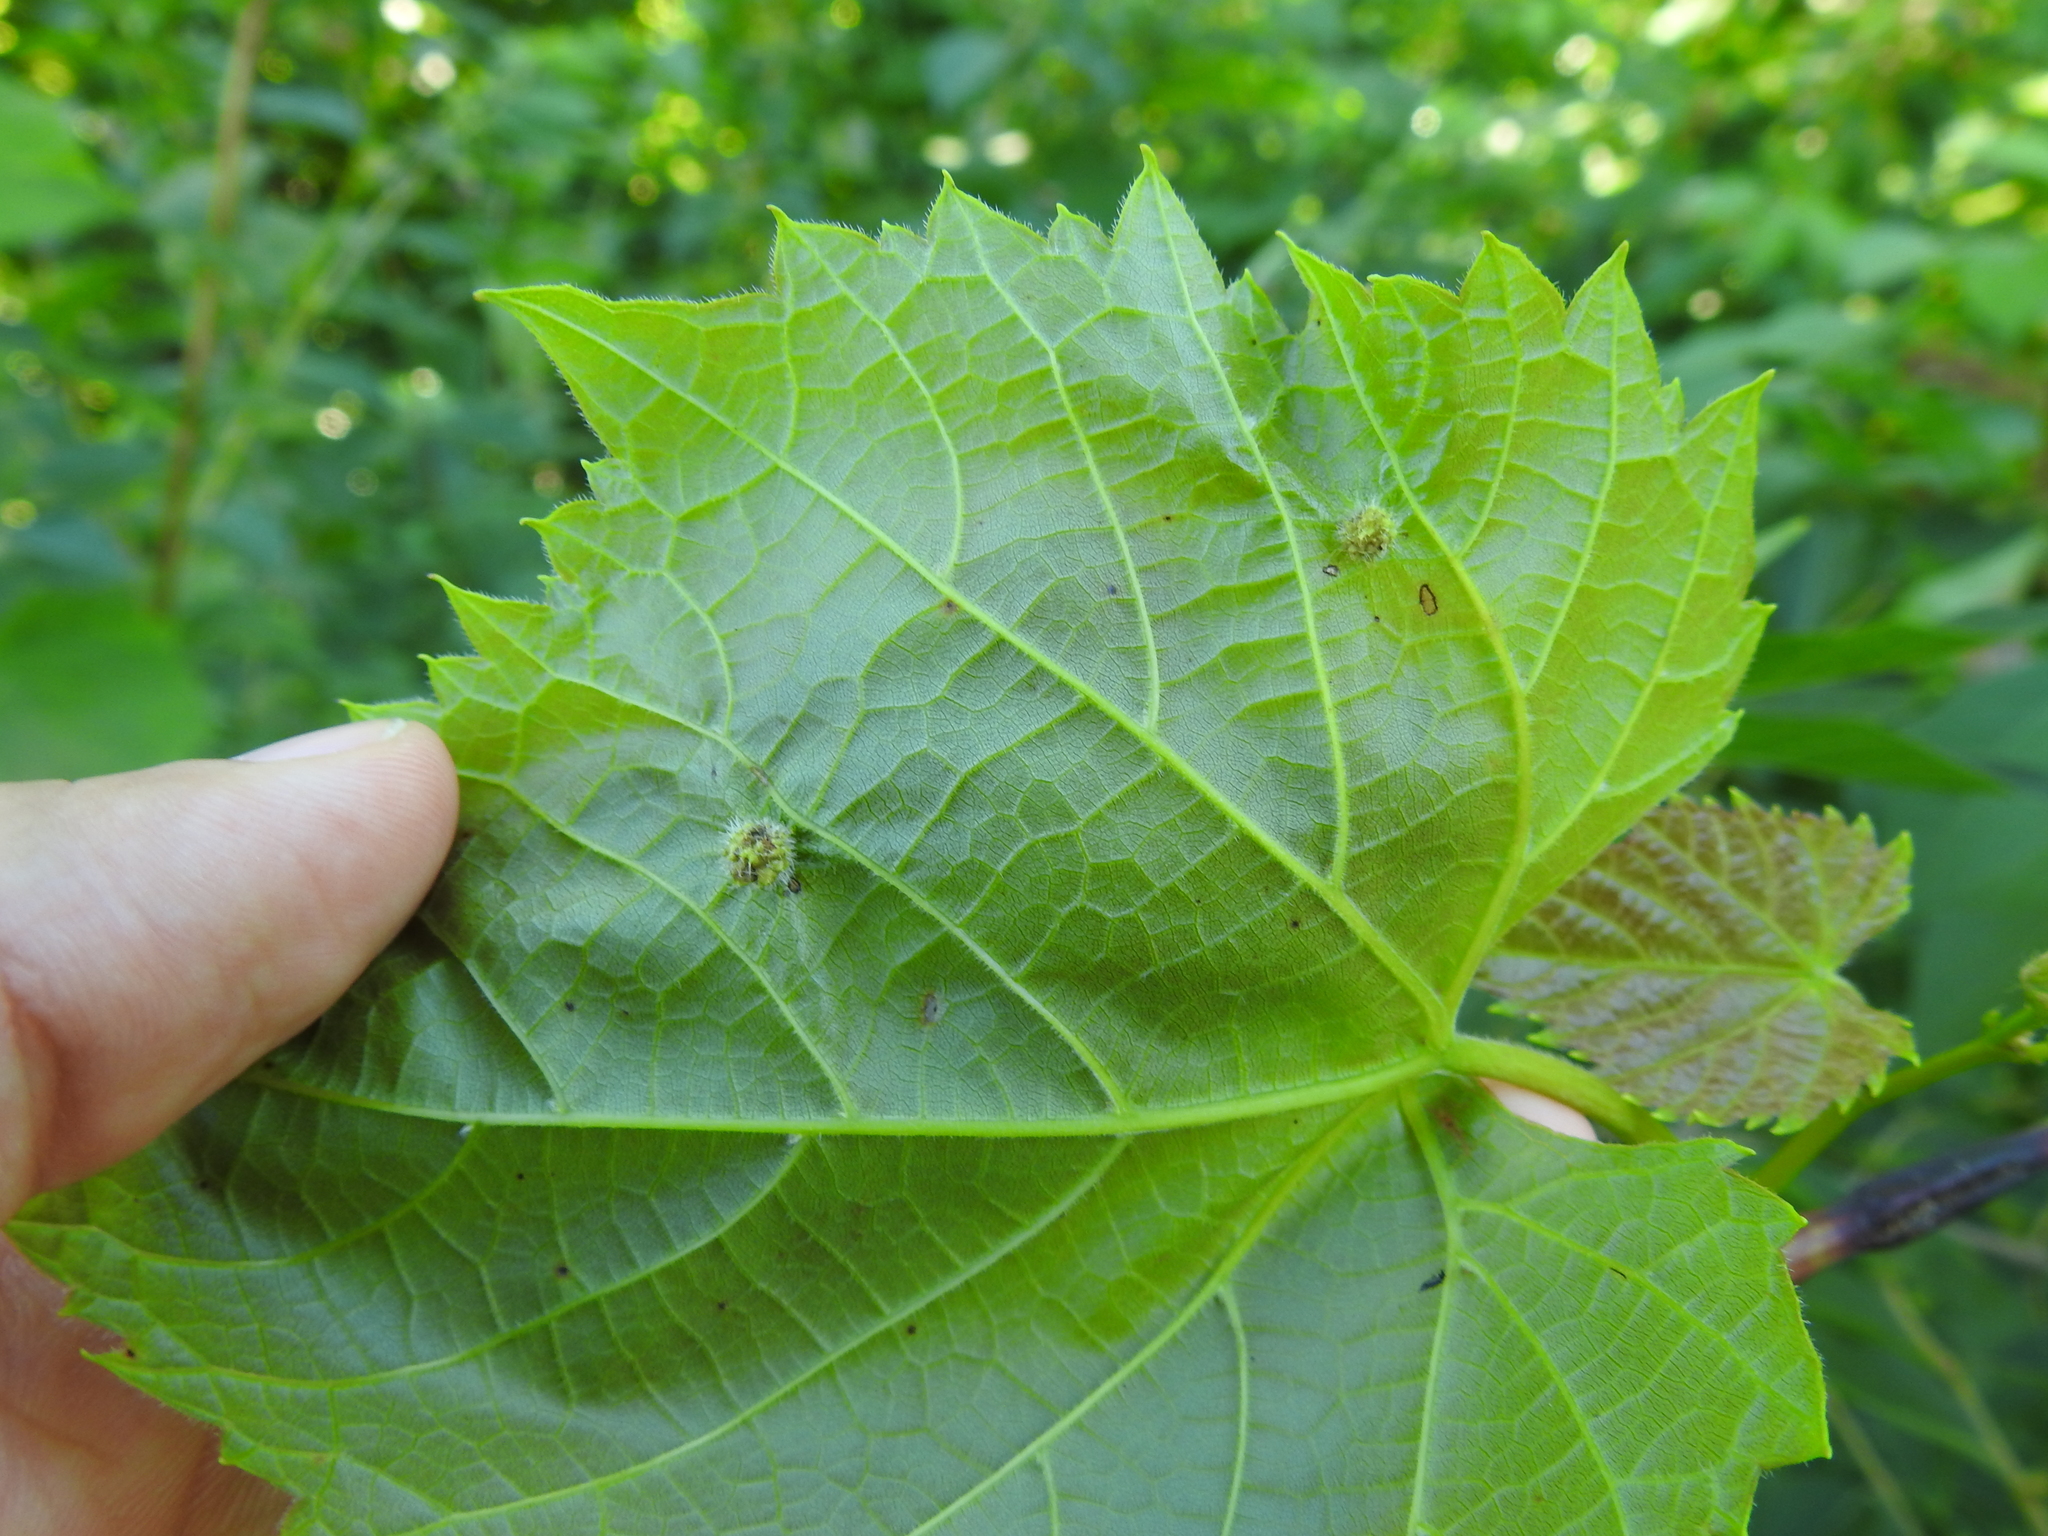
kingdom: Animalia
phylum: Arthropoda
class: Insecta
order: Hemiptera
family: Phylloxeridae
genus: Daktulosphaira
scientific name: Daktulosphaira vitifoliae
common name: Grape phylloxera
